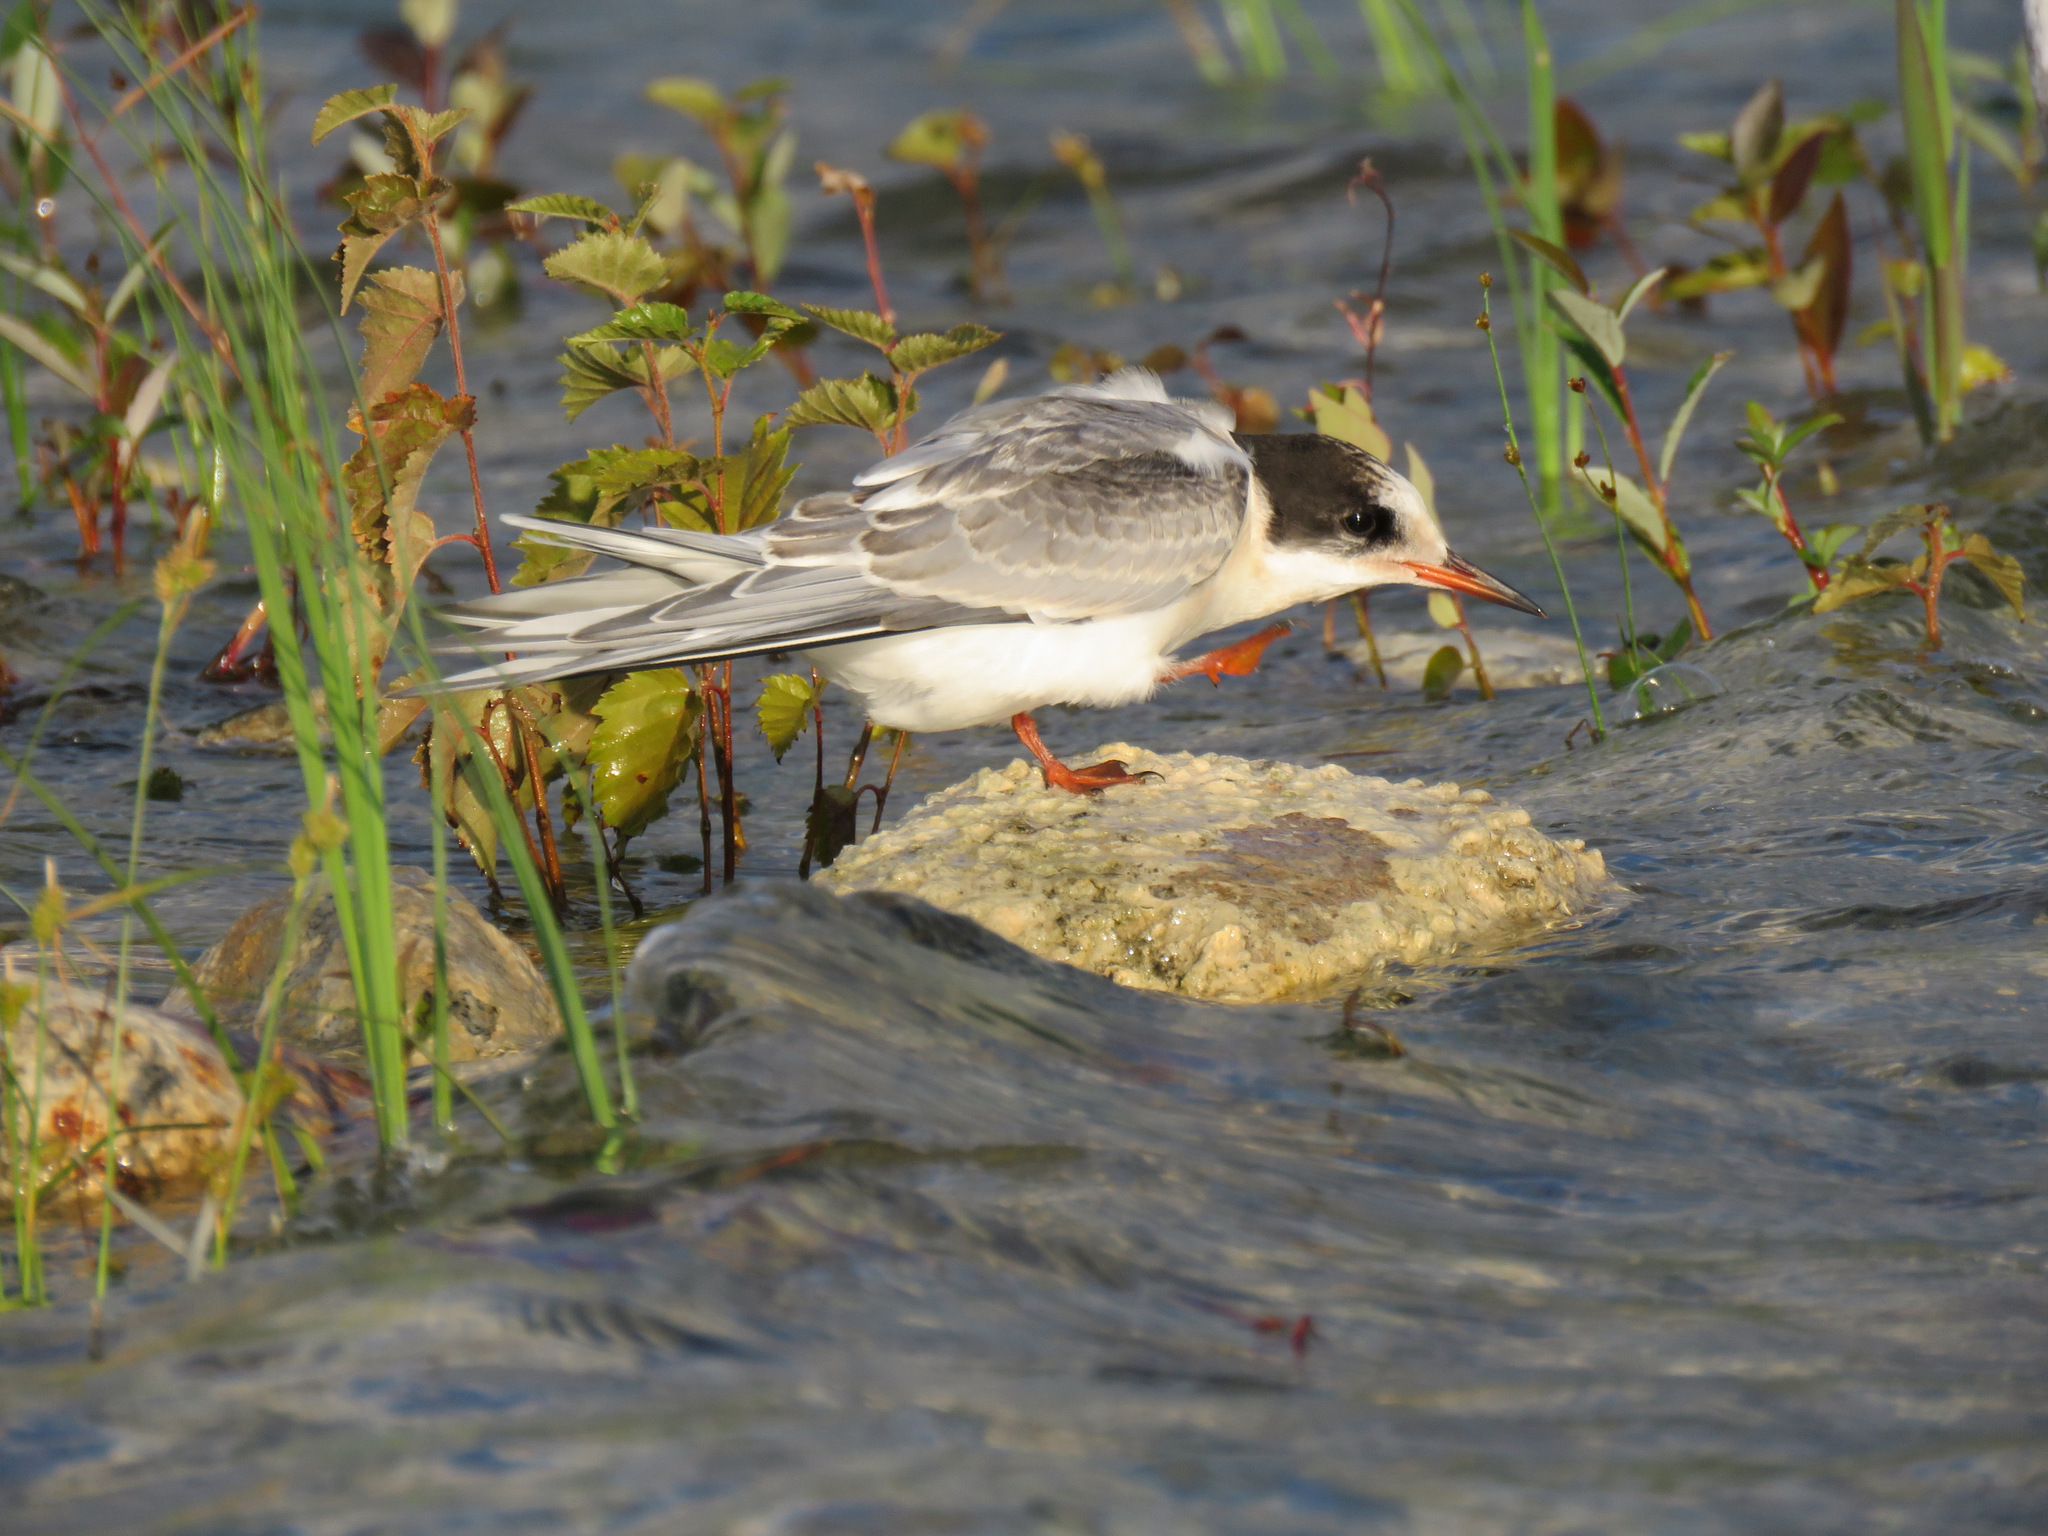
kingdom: Animalia
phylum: Chordata
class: Aves
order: Charadriiformes
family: Laridae
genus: Sterna
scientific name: Sterna paradisaea
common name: Arctic tern
